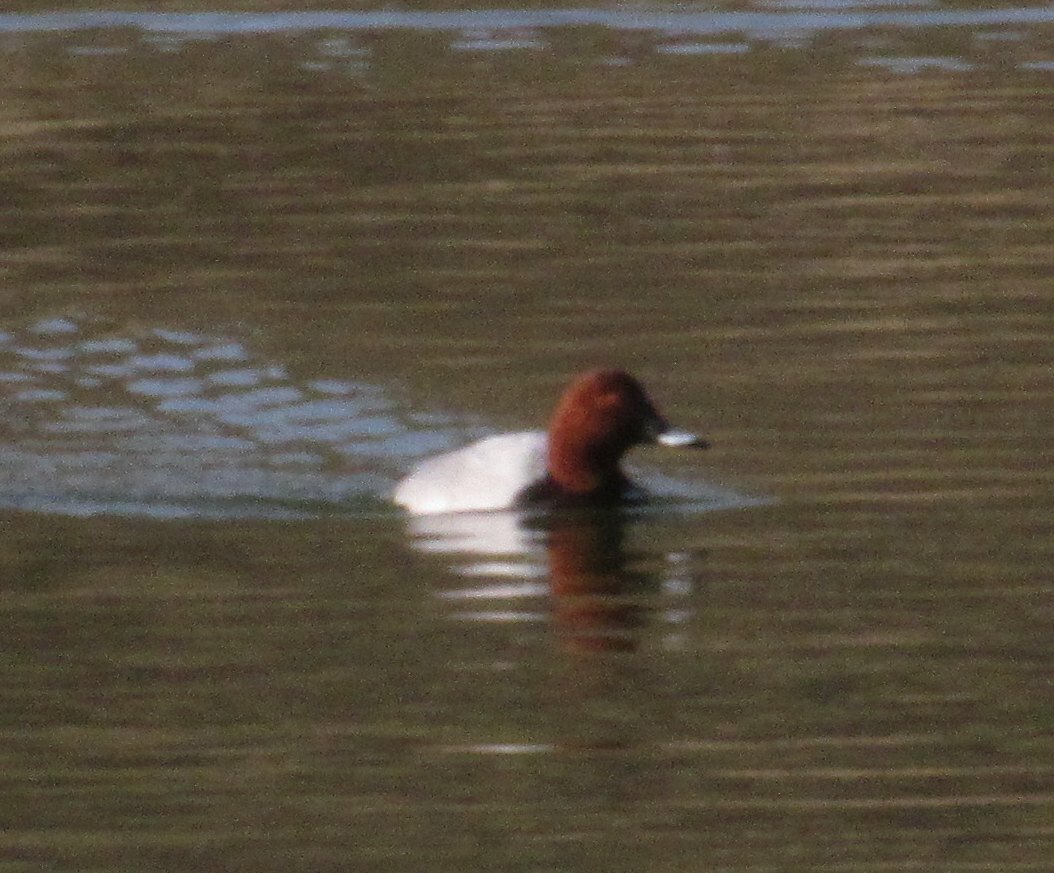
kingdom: Animalia
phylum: Chordata
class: Aves
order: Anseriformes
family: Anatidae
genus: Aythya
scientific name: Aythya ferina
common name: Common pochard
